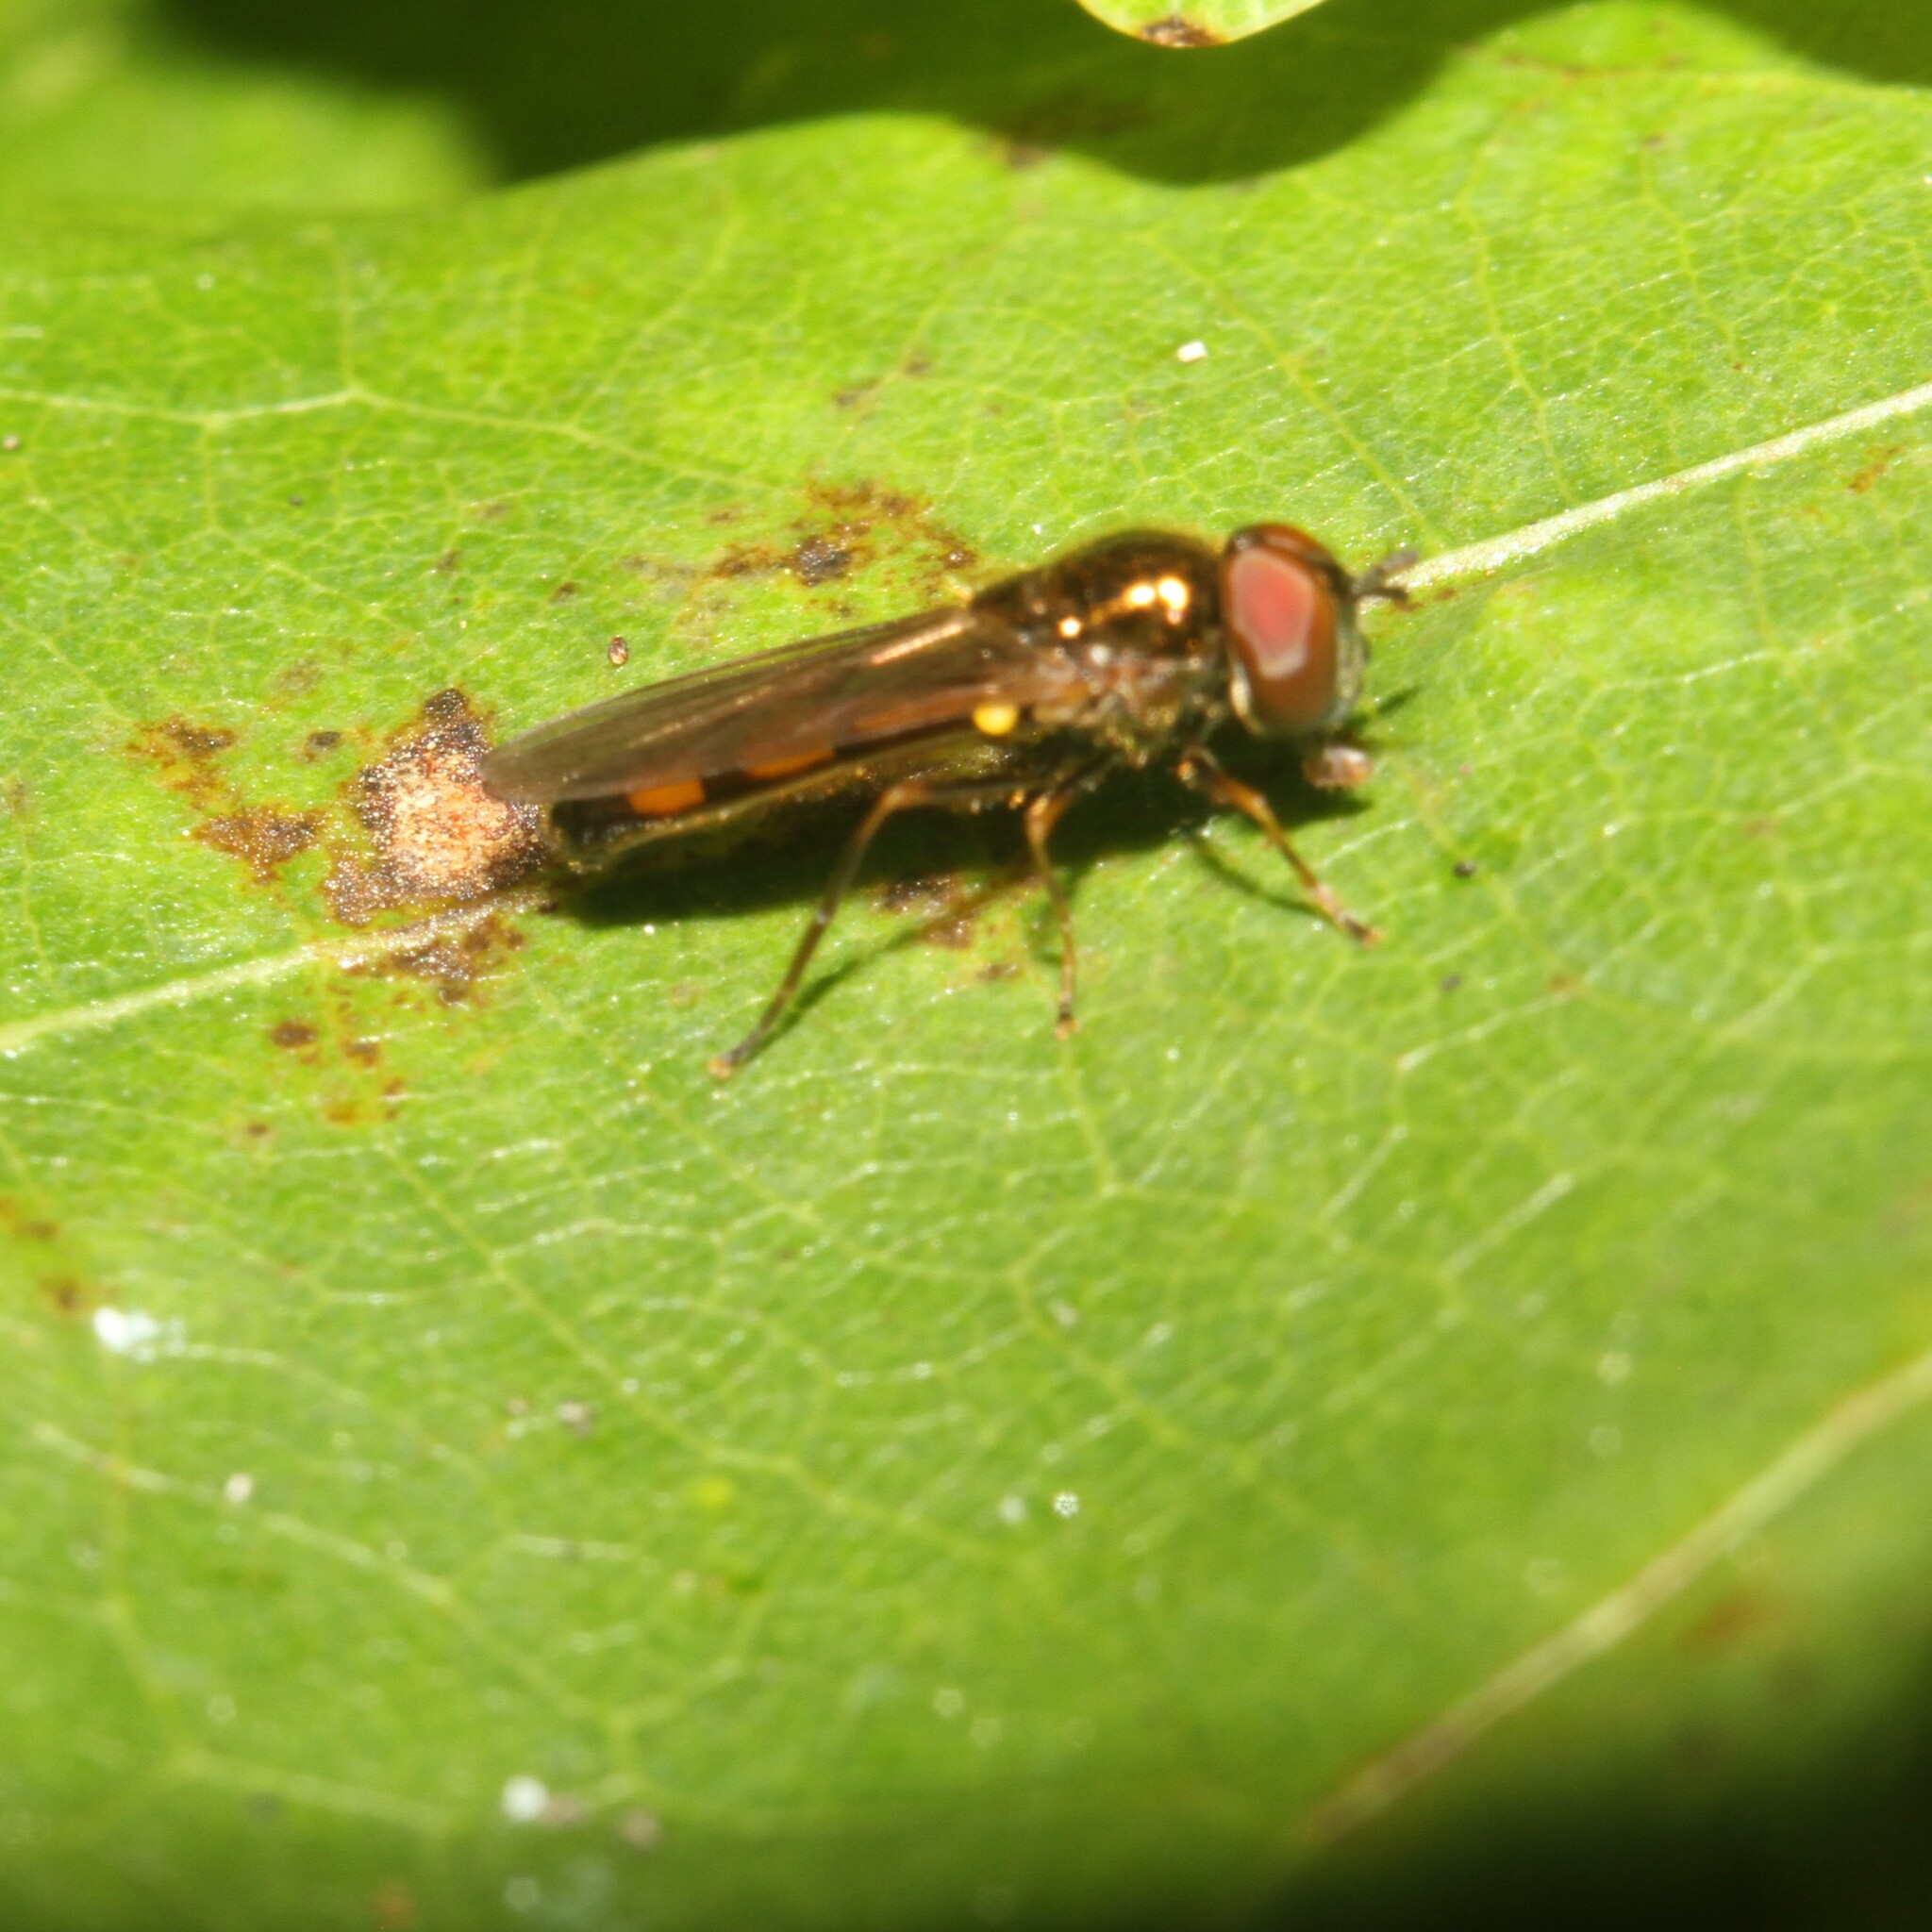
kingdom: Animalia
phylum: Arthropoda
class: Insecta
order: Diptera
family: Syrphidae
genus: Melanostoma
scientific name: Melanostoma mellina
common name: Hover fly
